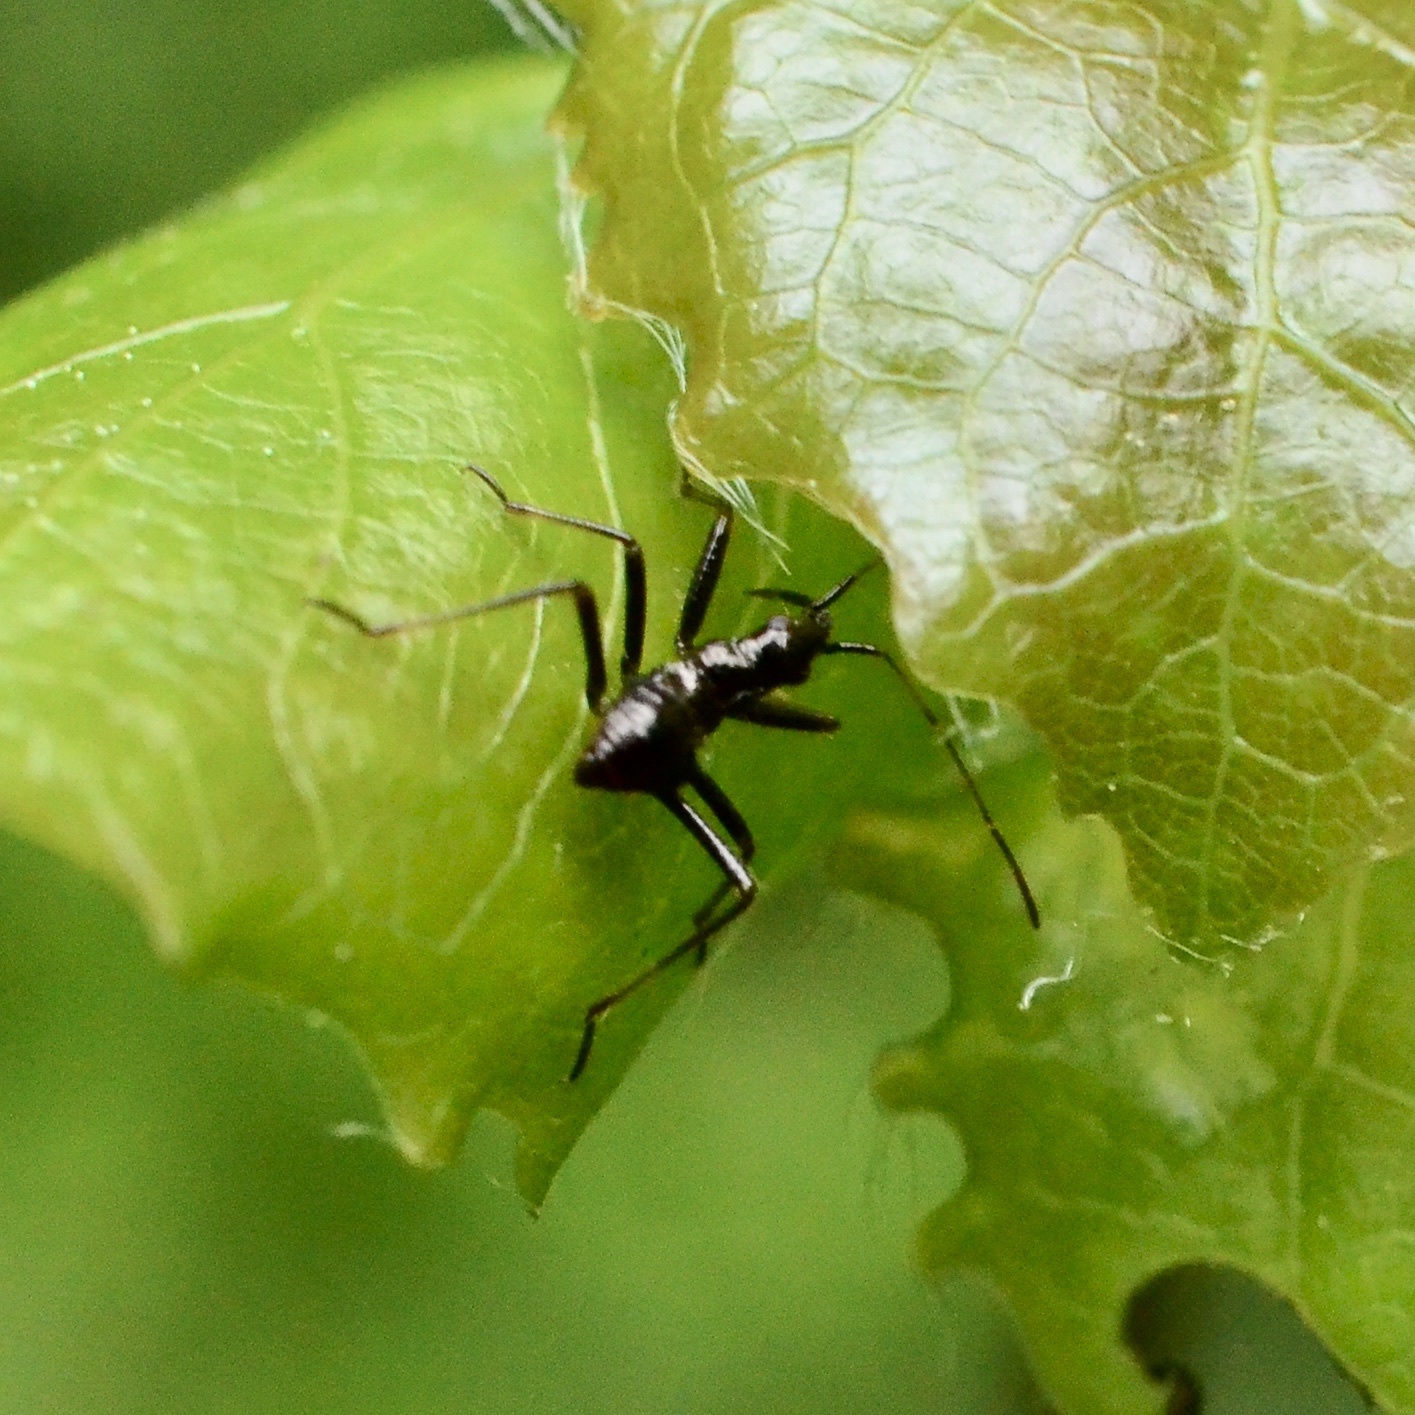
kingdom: Animalia
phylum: Arthropoda
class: Insecta
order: Hemiptera
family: Nabidae
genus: Himacerus
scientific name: Himacerus apterus
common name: Tree damsel bug
